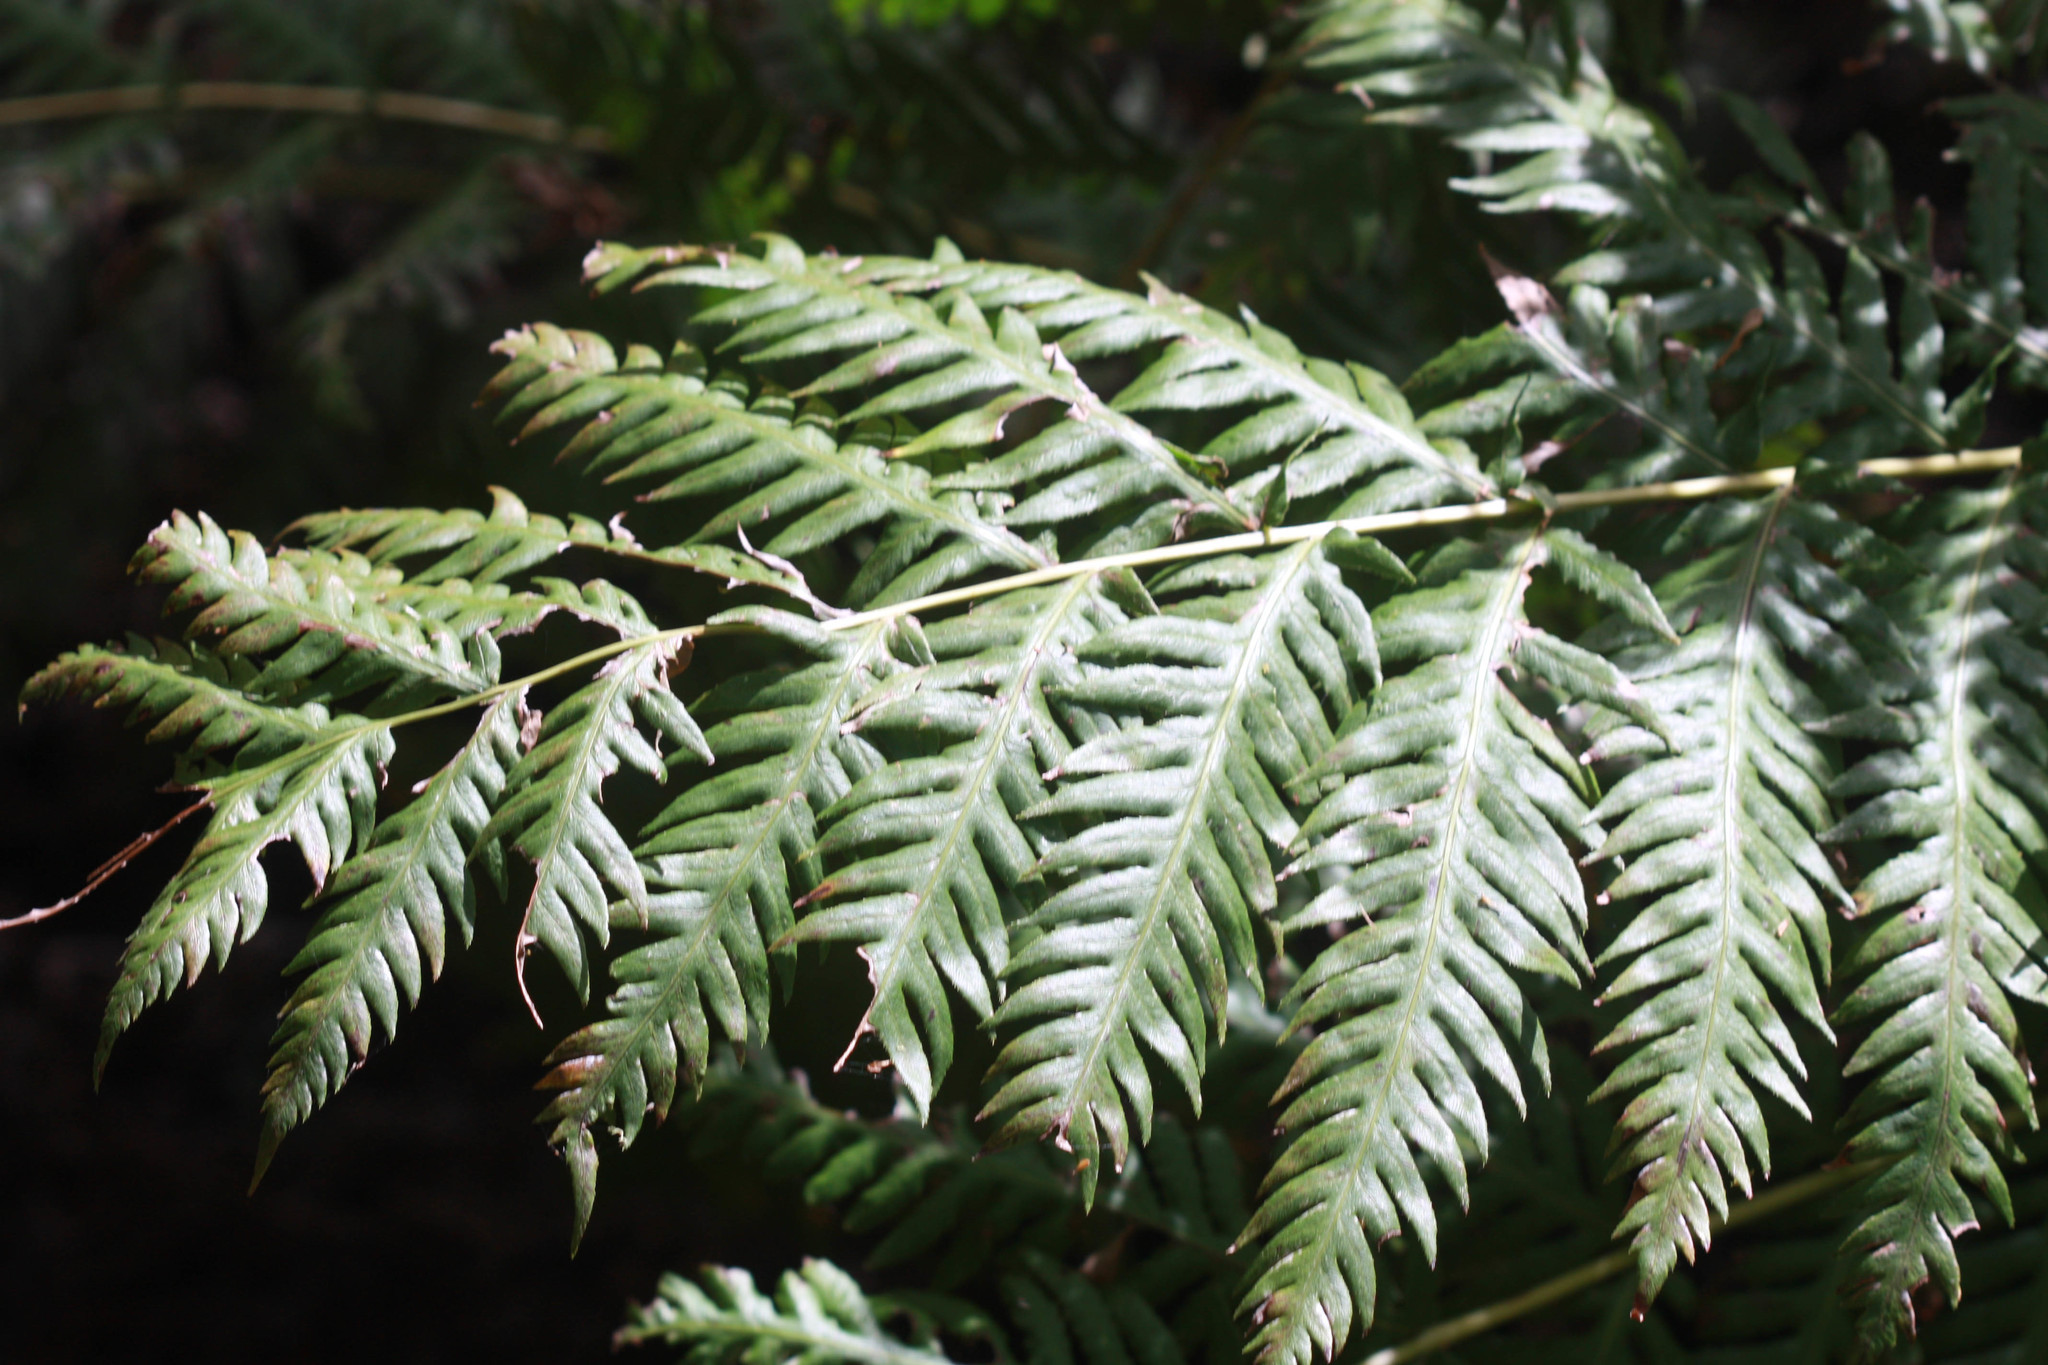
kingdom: Plantae
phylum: Tracheophyta
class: Polypodiopsida
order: Polypodiales
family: Blechnaceae
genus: Woodwardia
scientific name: Woodwardia fimbriata
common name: Giant chain fern
